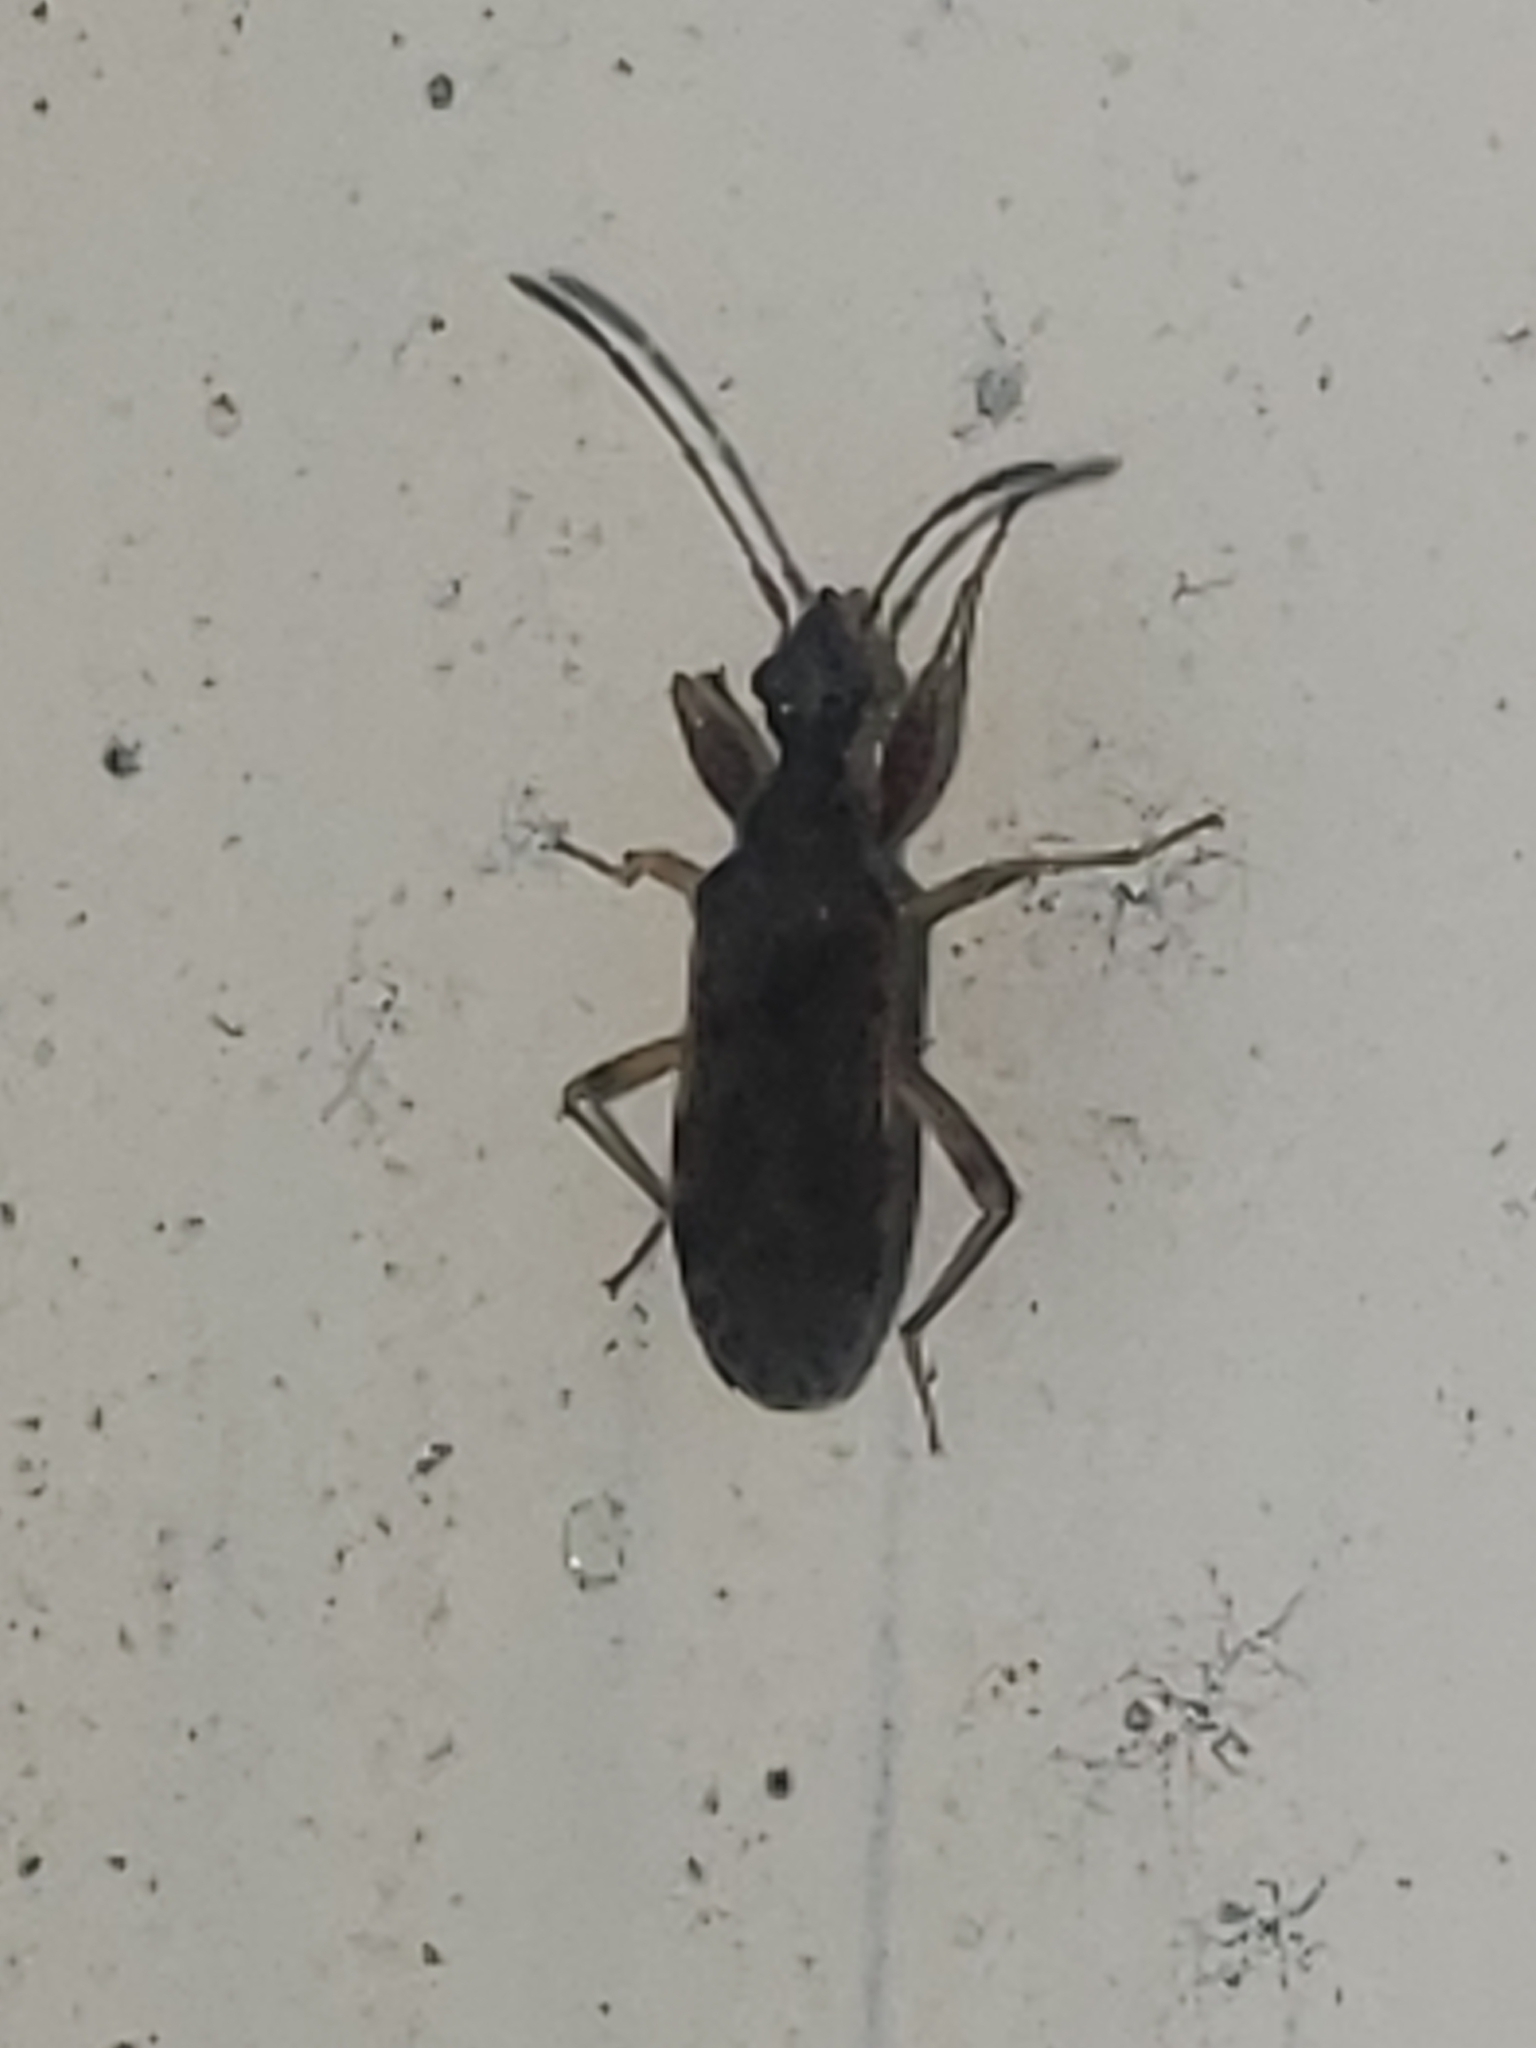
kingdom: Animalia
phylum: Arthropoda
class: Insecta
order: Hemiptera
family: Rhyparochromidae
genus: Heraeus
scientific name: Heraeus plebejus
